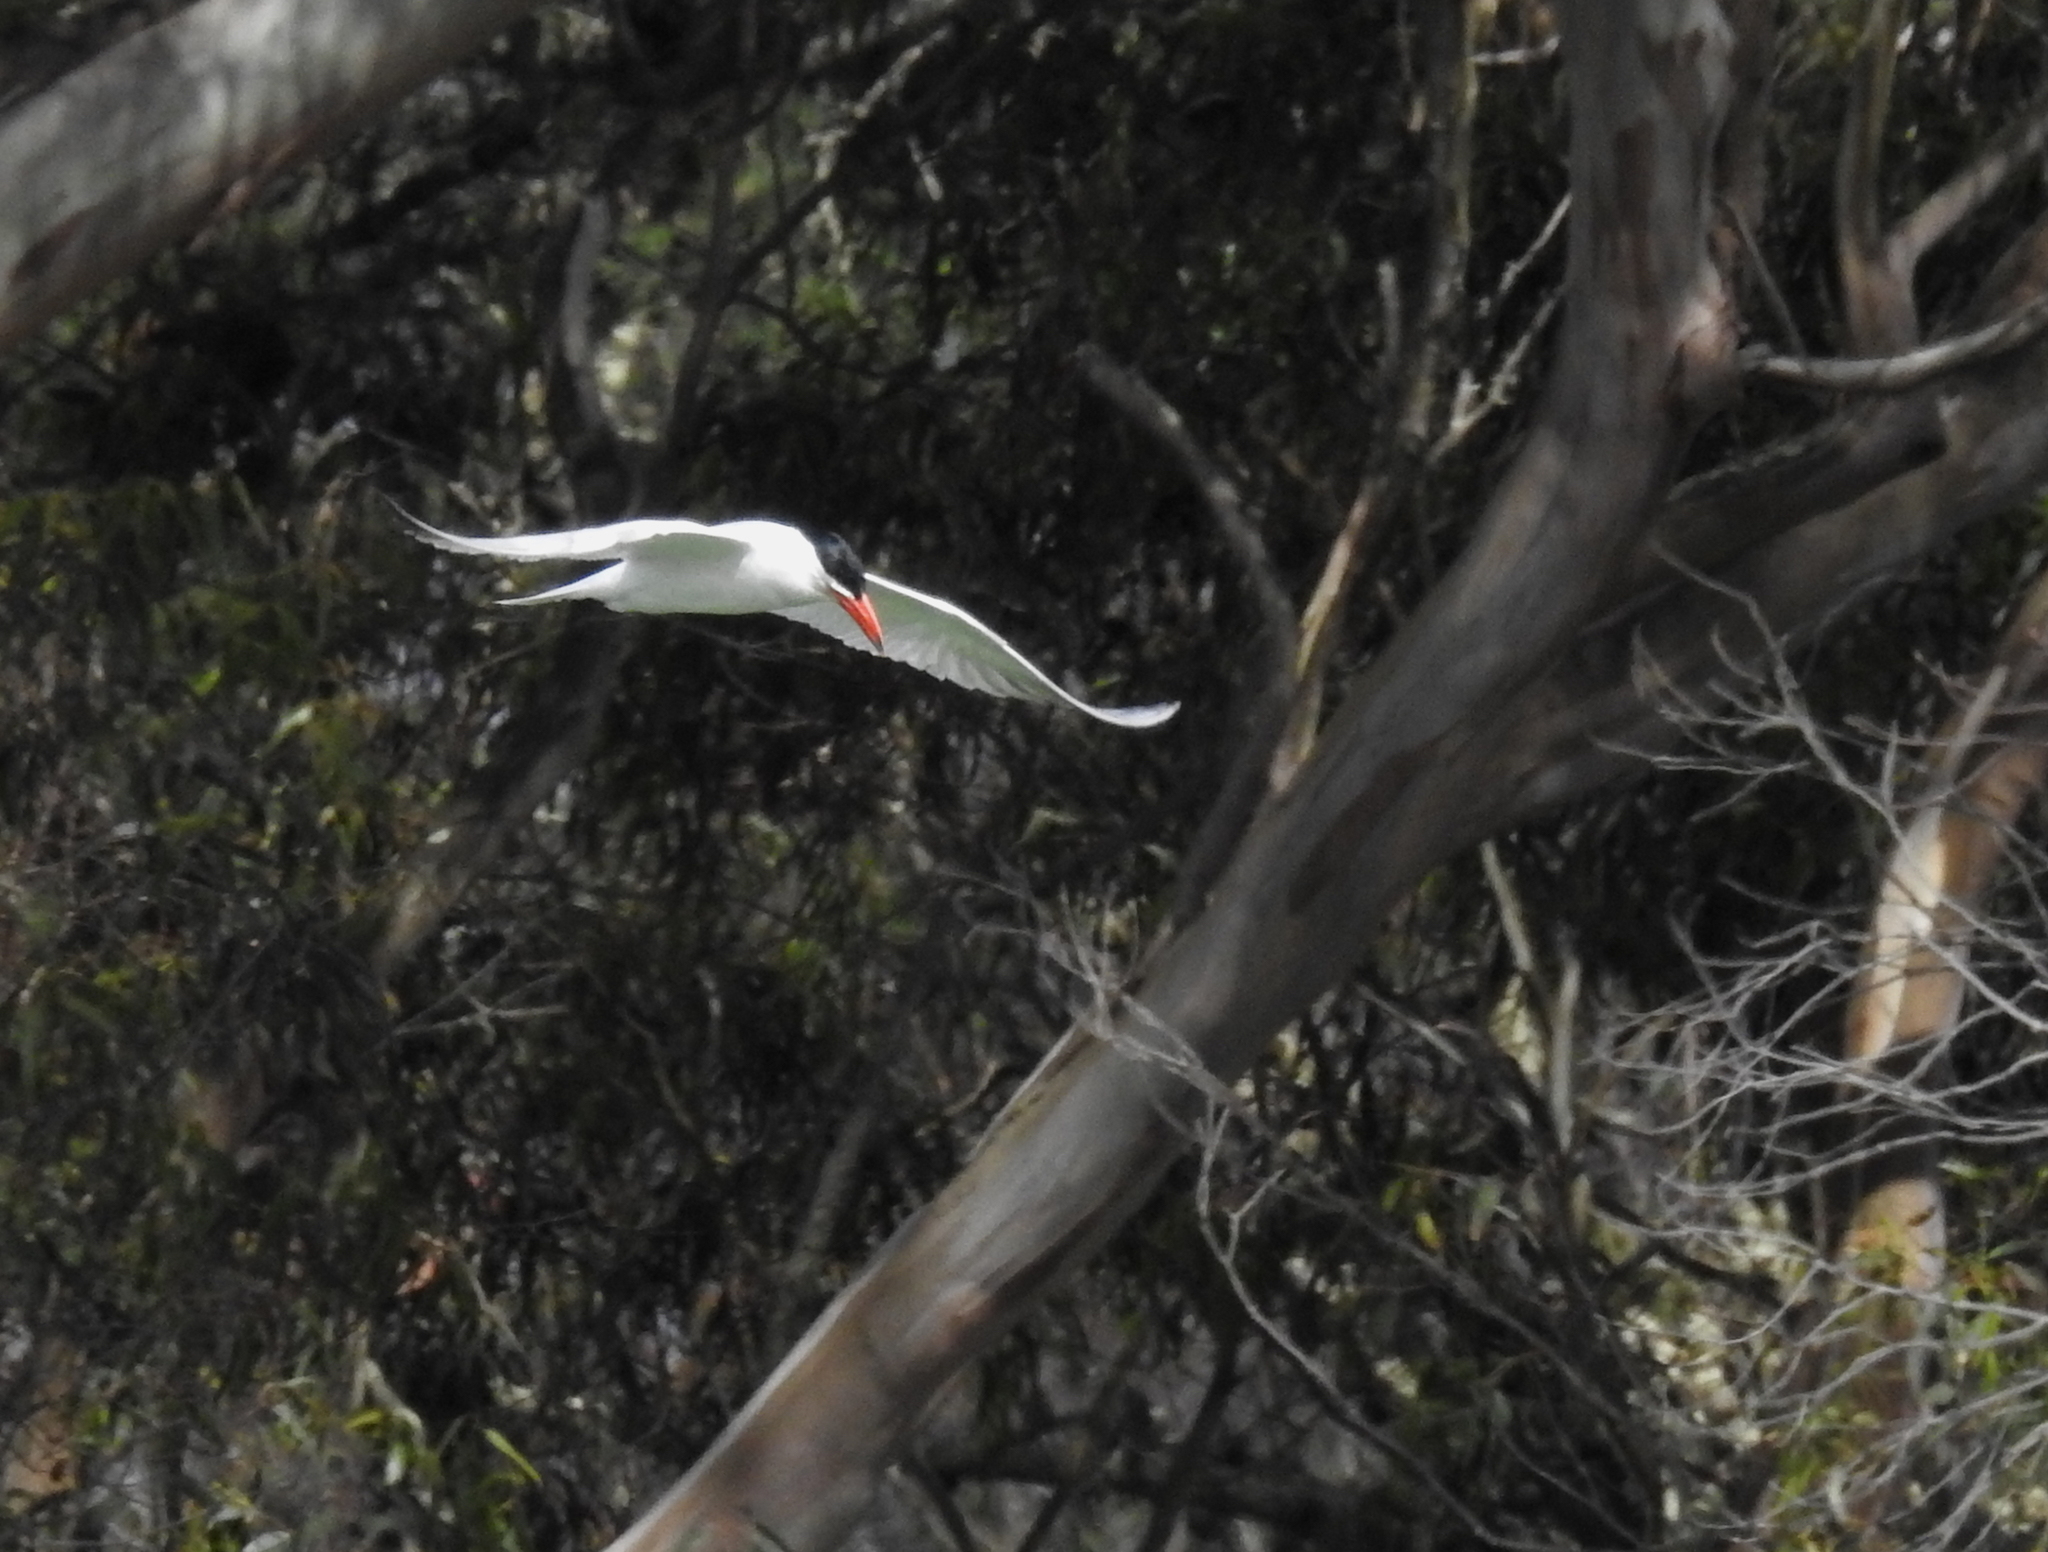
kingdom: Animalia
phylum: Chordata
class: Aves
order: Charadriiformes
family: Laridae
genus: Hydroprogne
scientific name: Hydroprogne caspia
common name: Caspian tern
